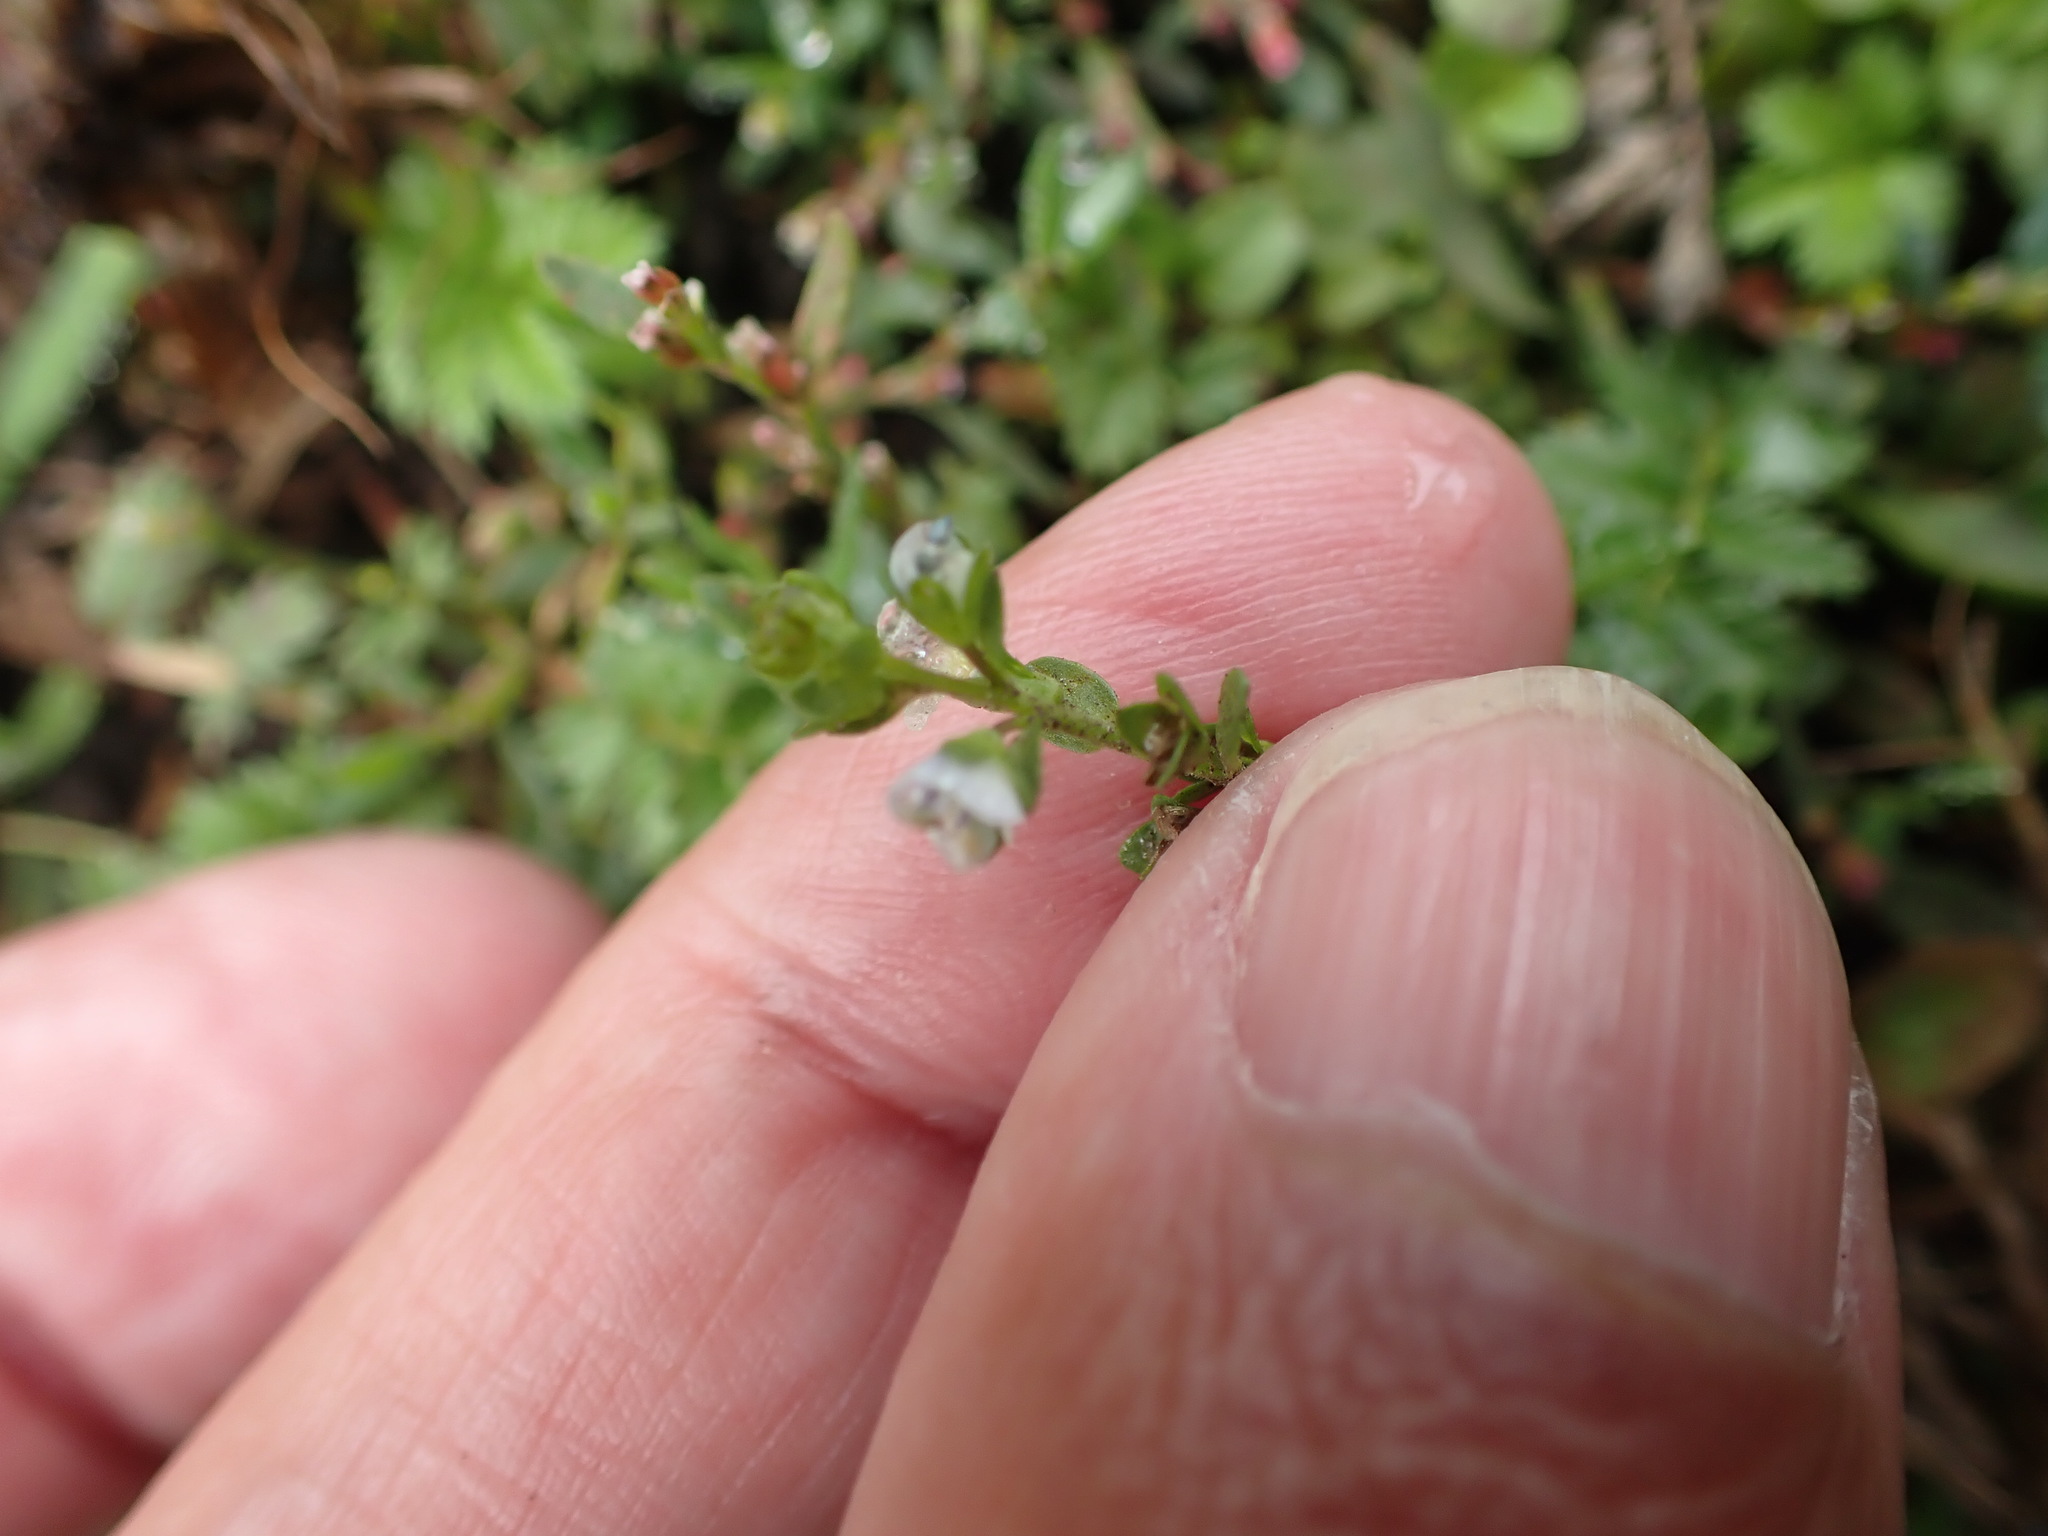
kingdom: Plantae
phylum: Tracheophyta
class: Magnoliopsida
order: Lamiales
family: Plantaginaceae
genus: Veronica
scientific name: Veronica serpyllifolia
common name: Thyme-leaved speedwell
